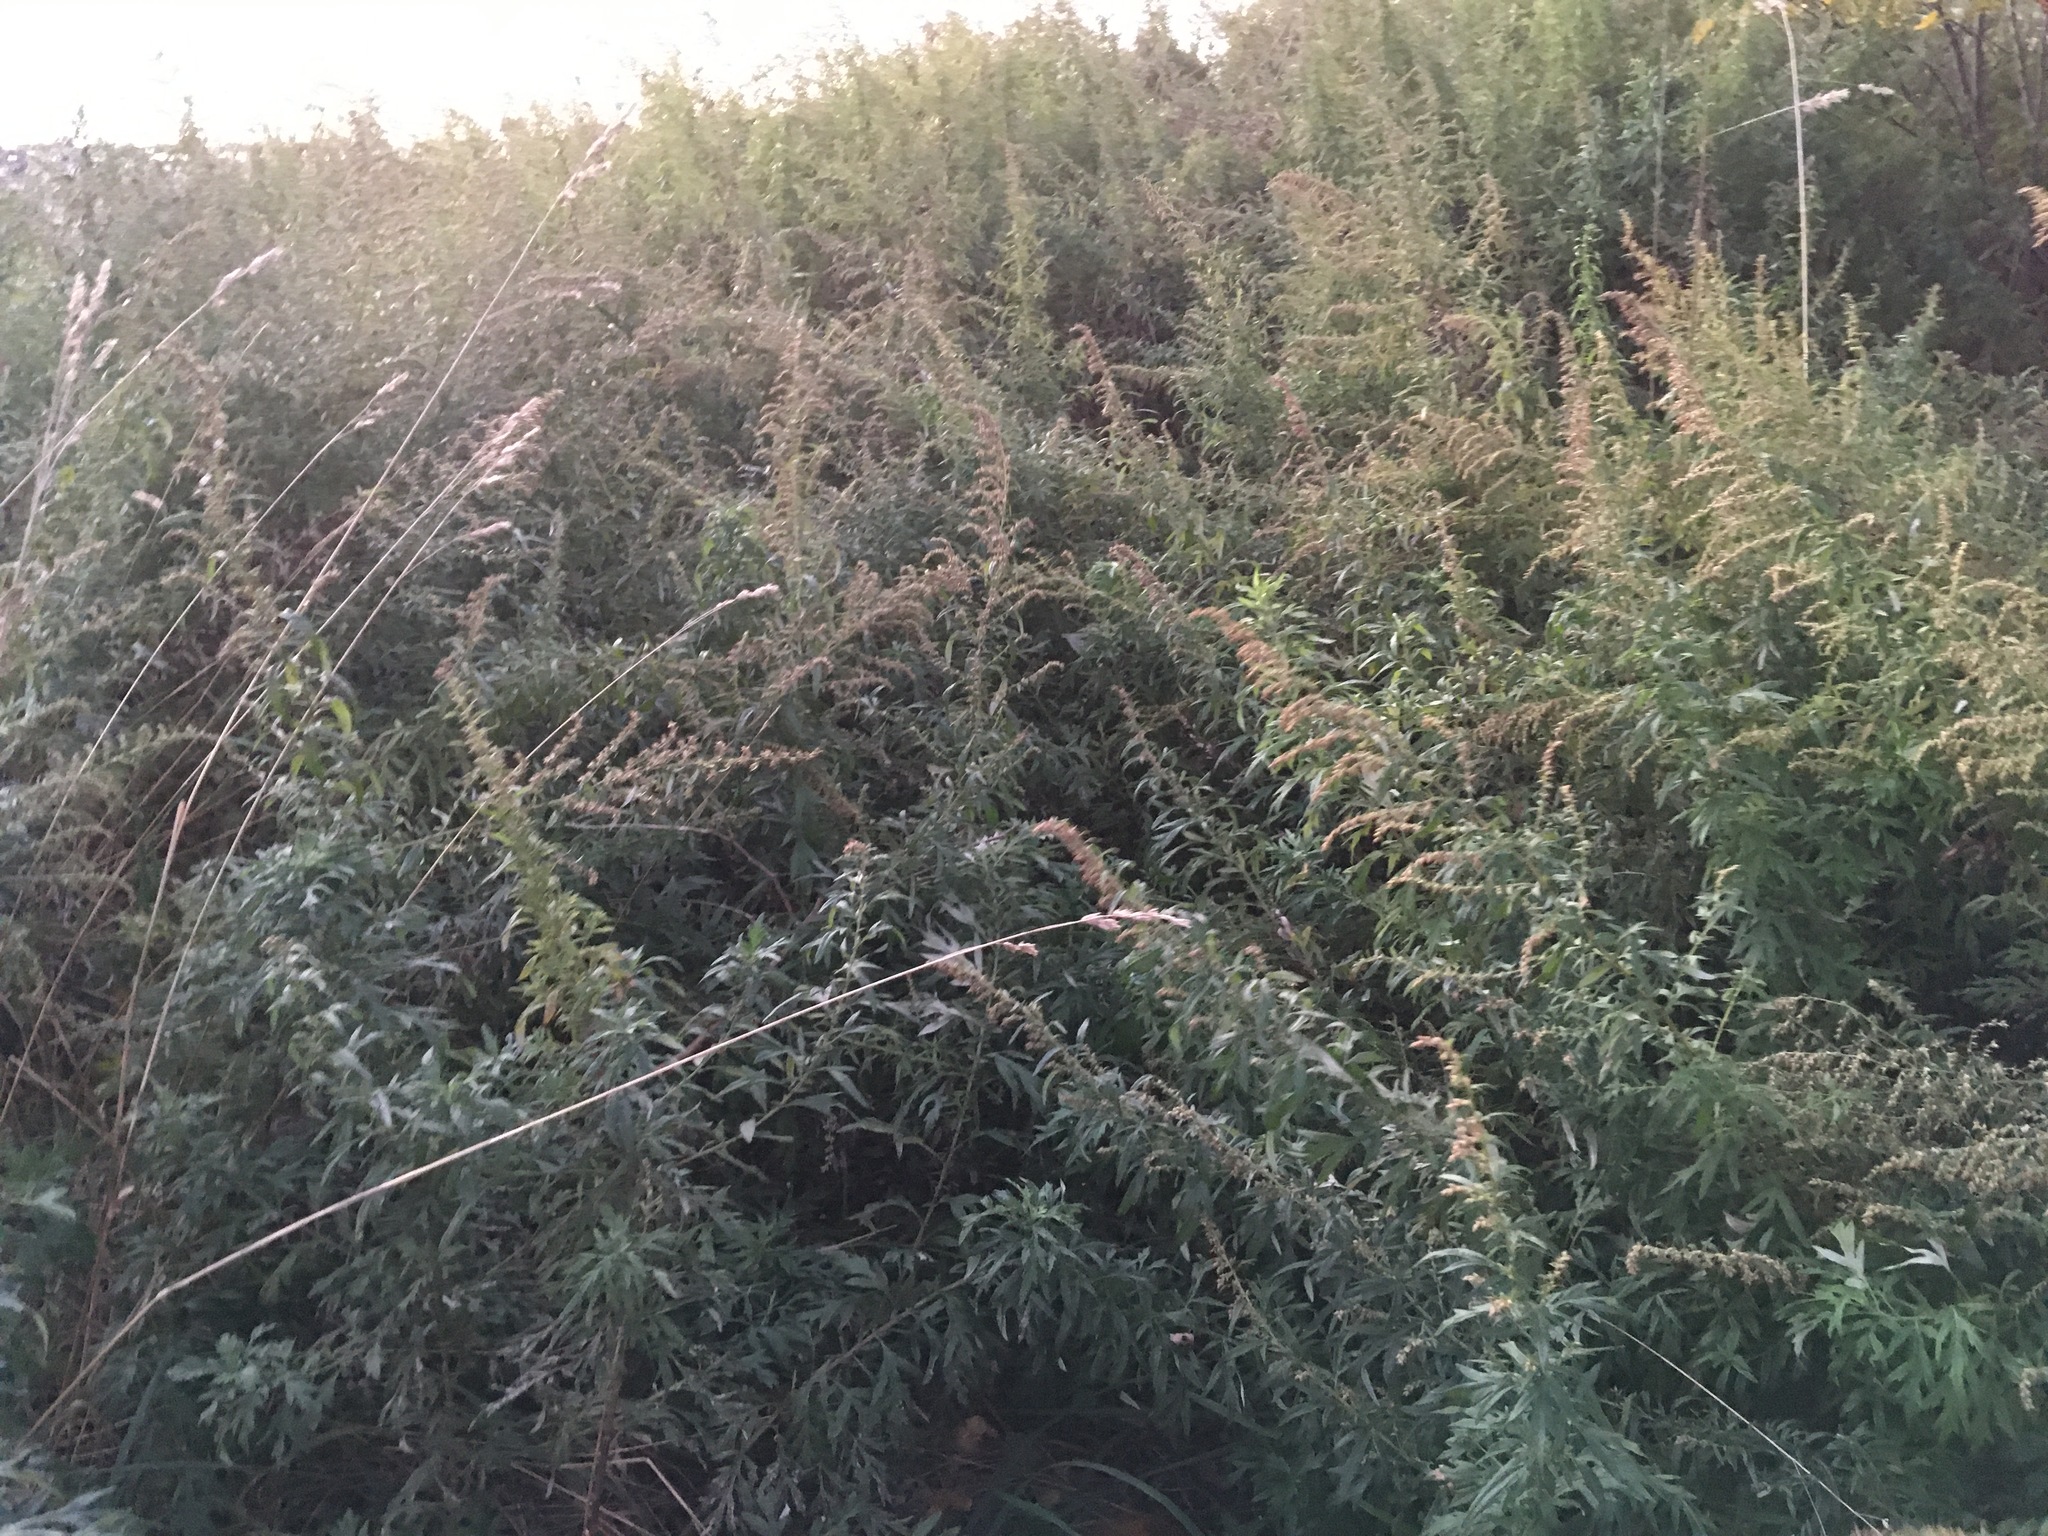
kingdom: Plantae
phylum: Tracheophyta
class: Magnoliopsida
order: Asterales
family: Asteraceae
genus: Artemisia
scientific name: Artemisia vulgaris
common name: Mugwort
